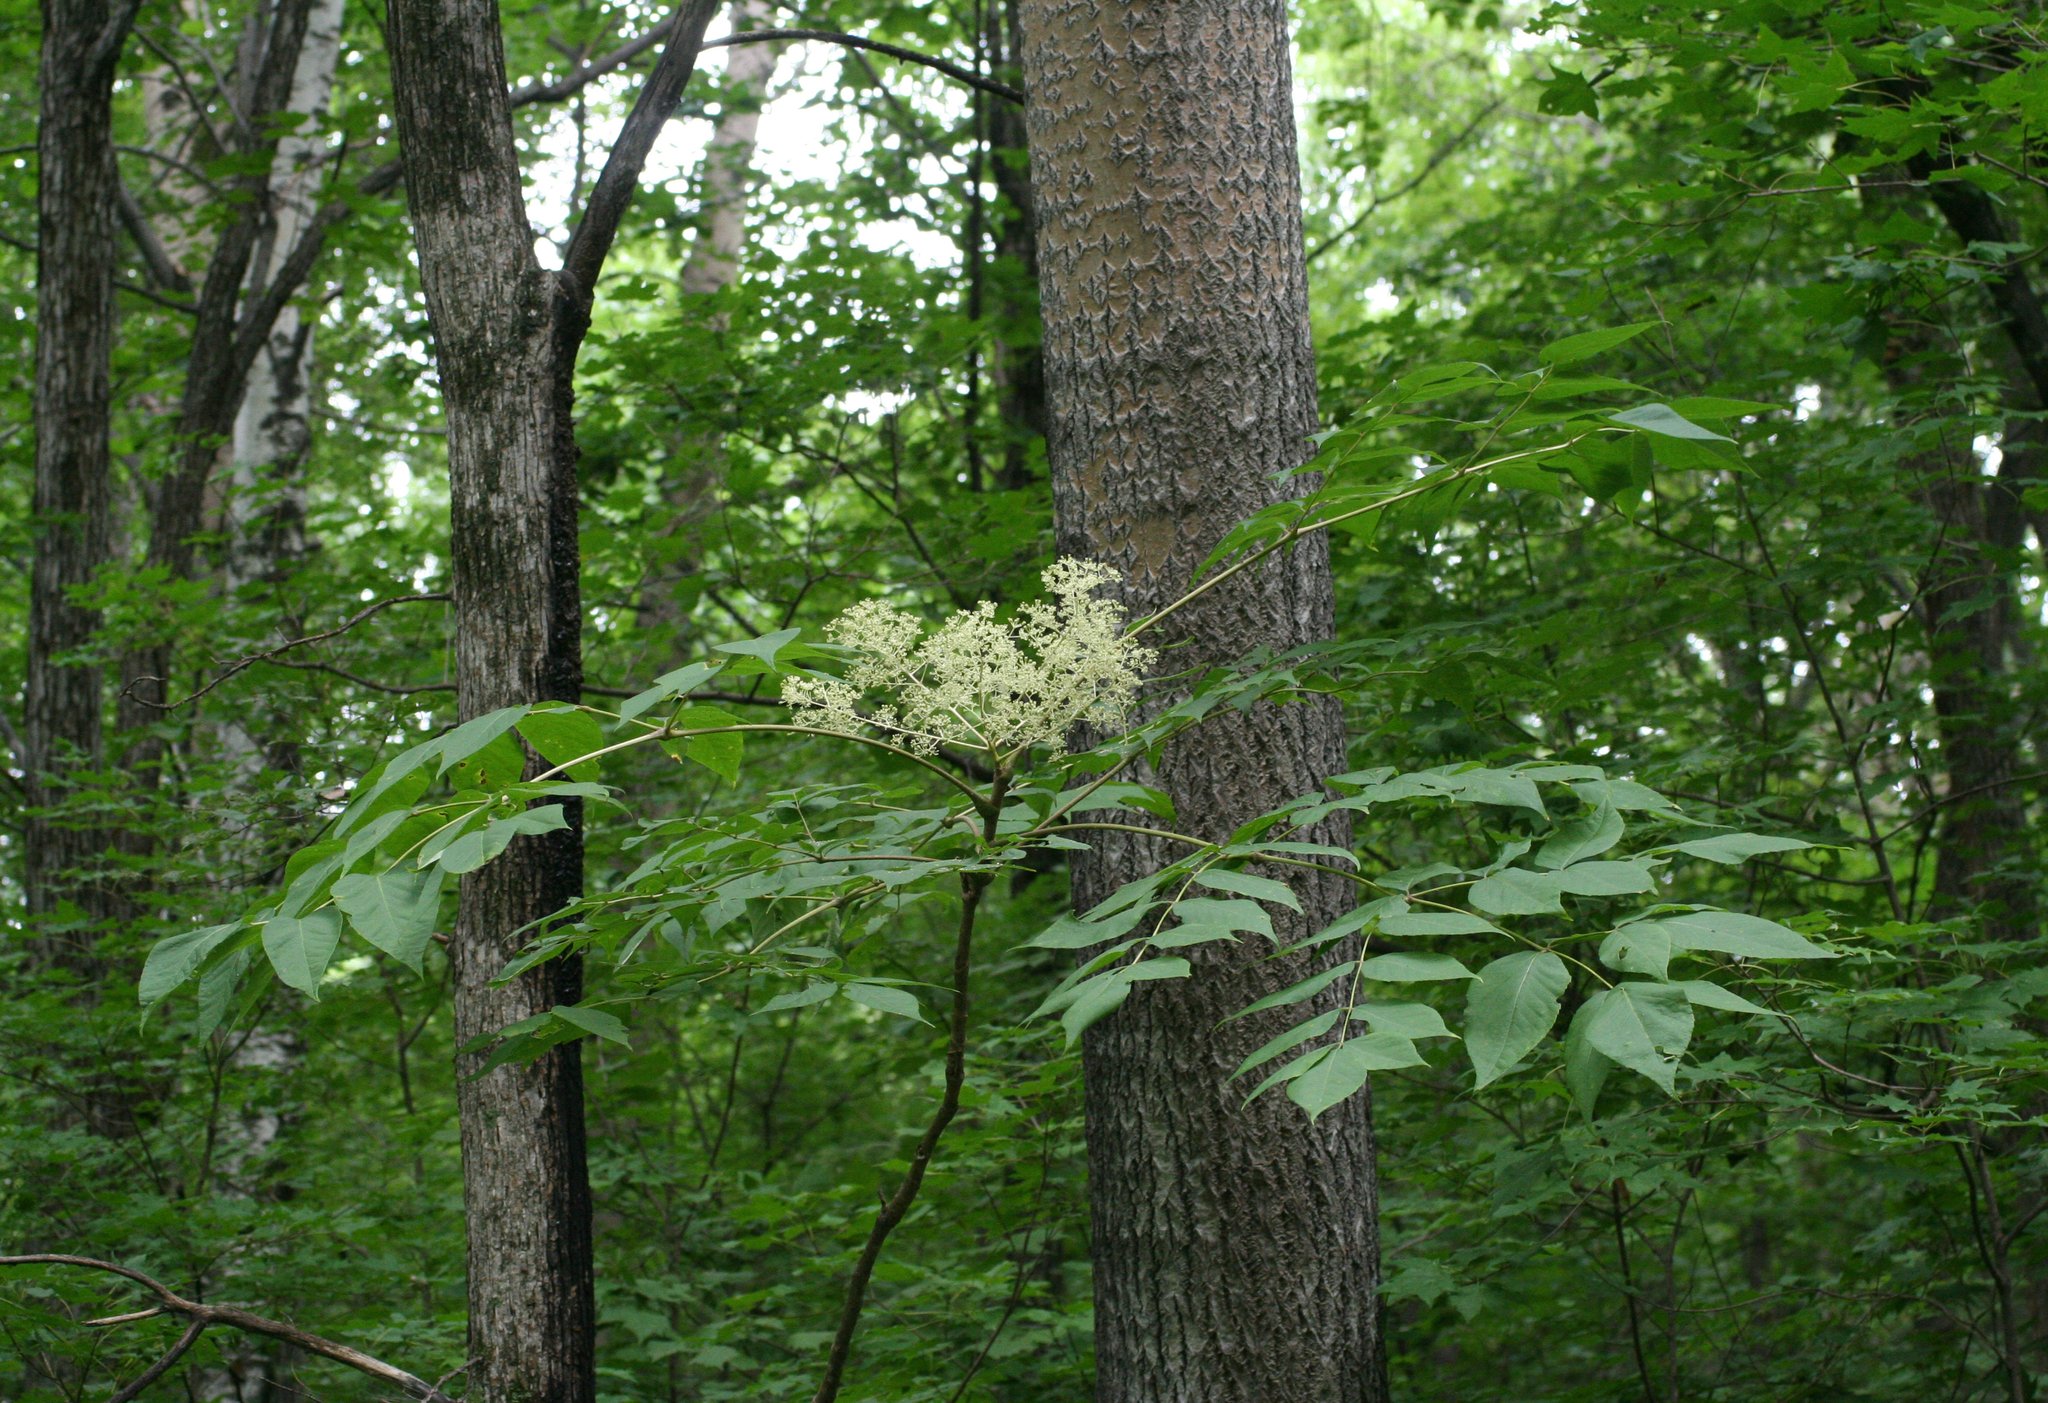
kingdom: Plantae
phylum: Tracheophyta
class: Magnoliopsida
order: Apiales
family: Araliaceae
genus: Aralia
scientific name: Aralia elata
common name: Japanese angelica-tree
